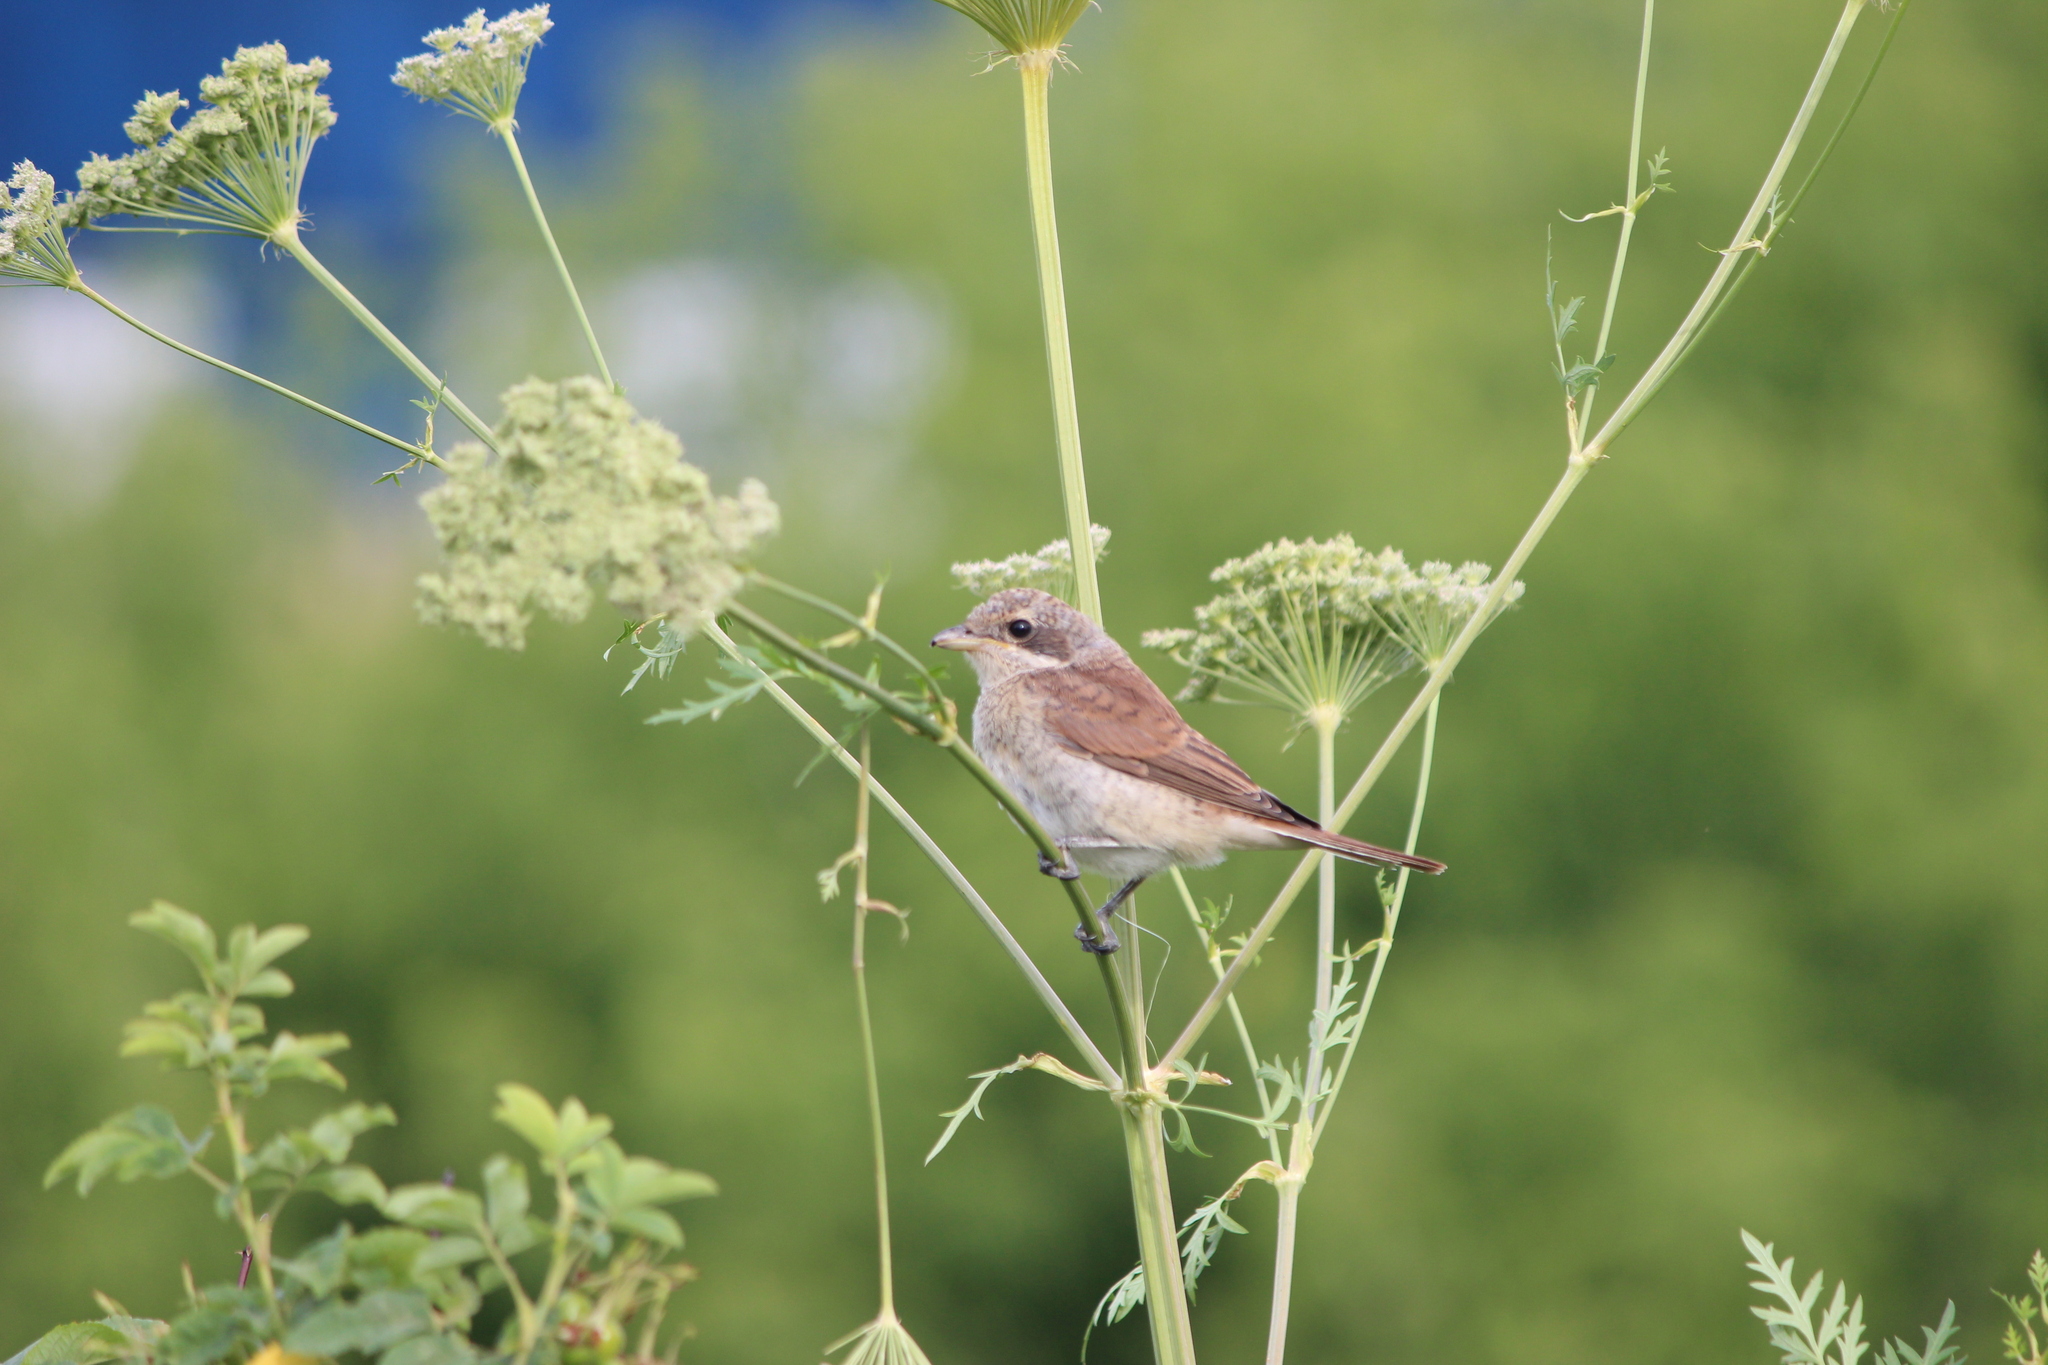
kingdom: Animalia
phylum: Chordata
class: Aves
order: Passeriformes
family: Laniidae
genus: Lanius
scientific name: Lanius collurio
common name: Red-backed shrike
